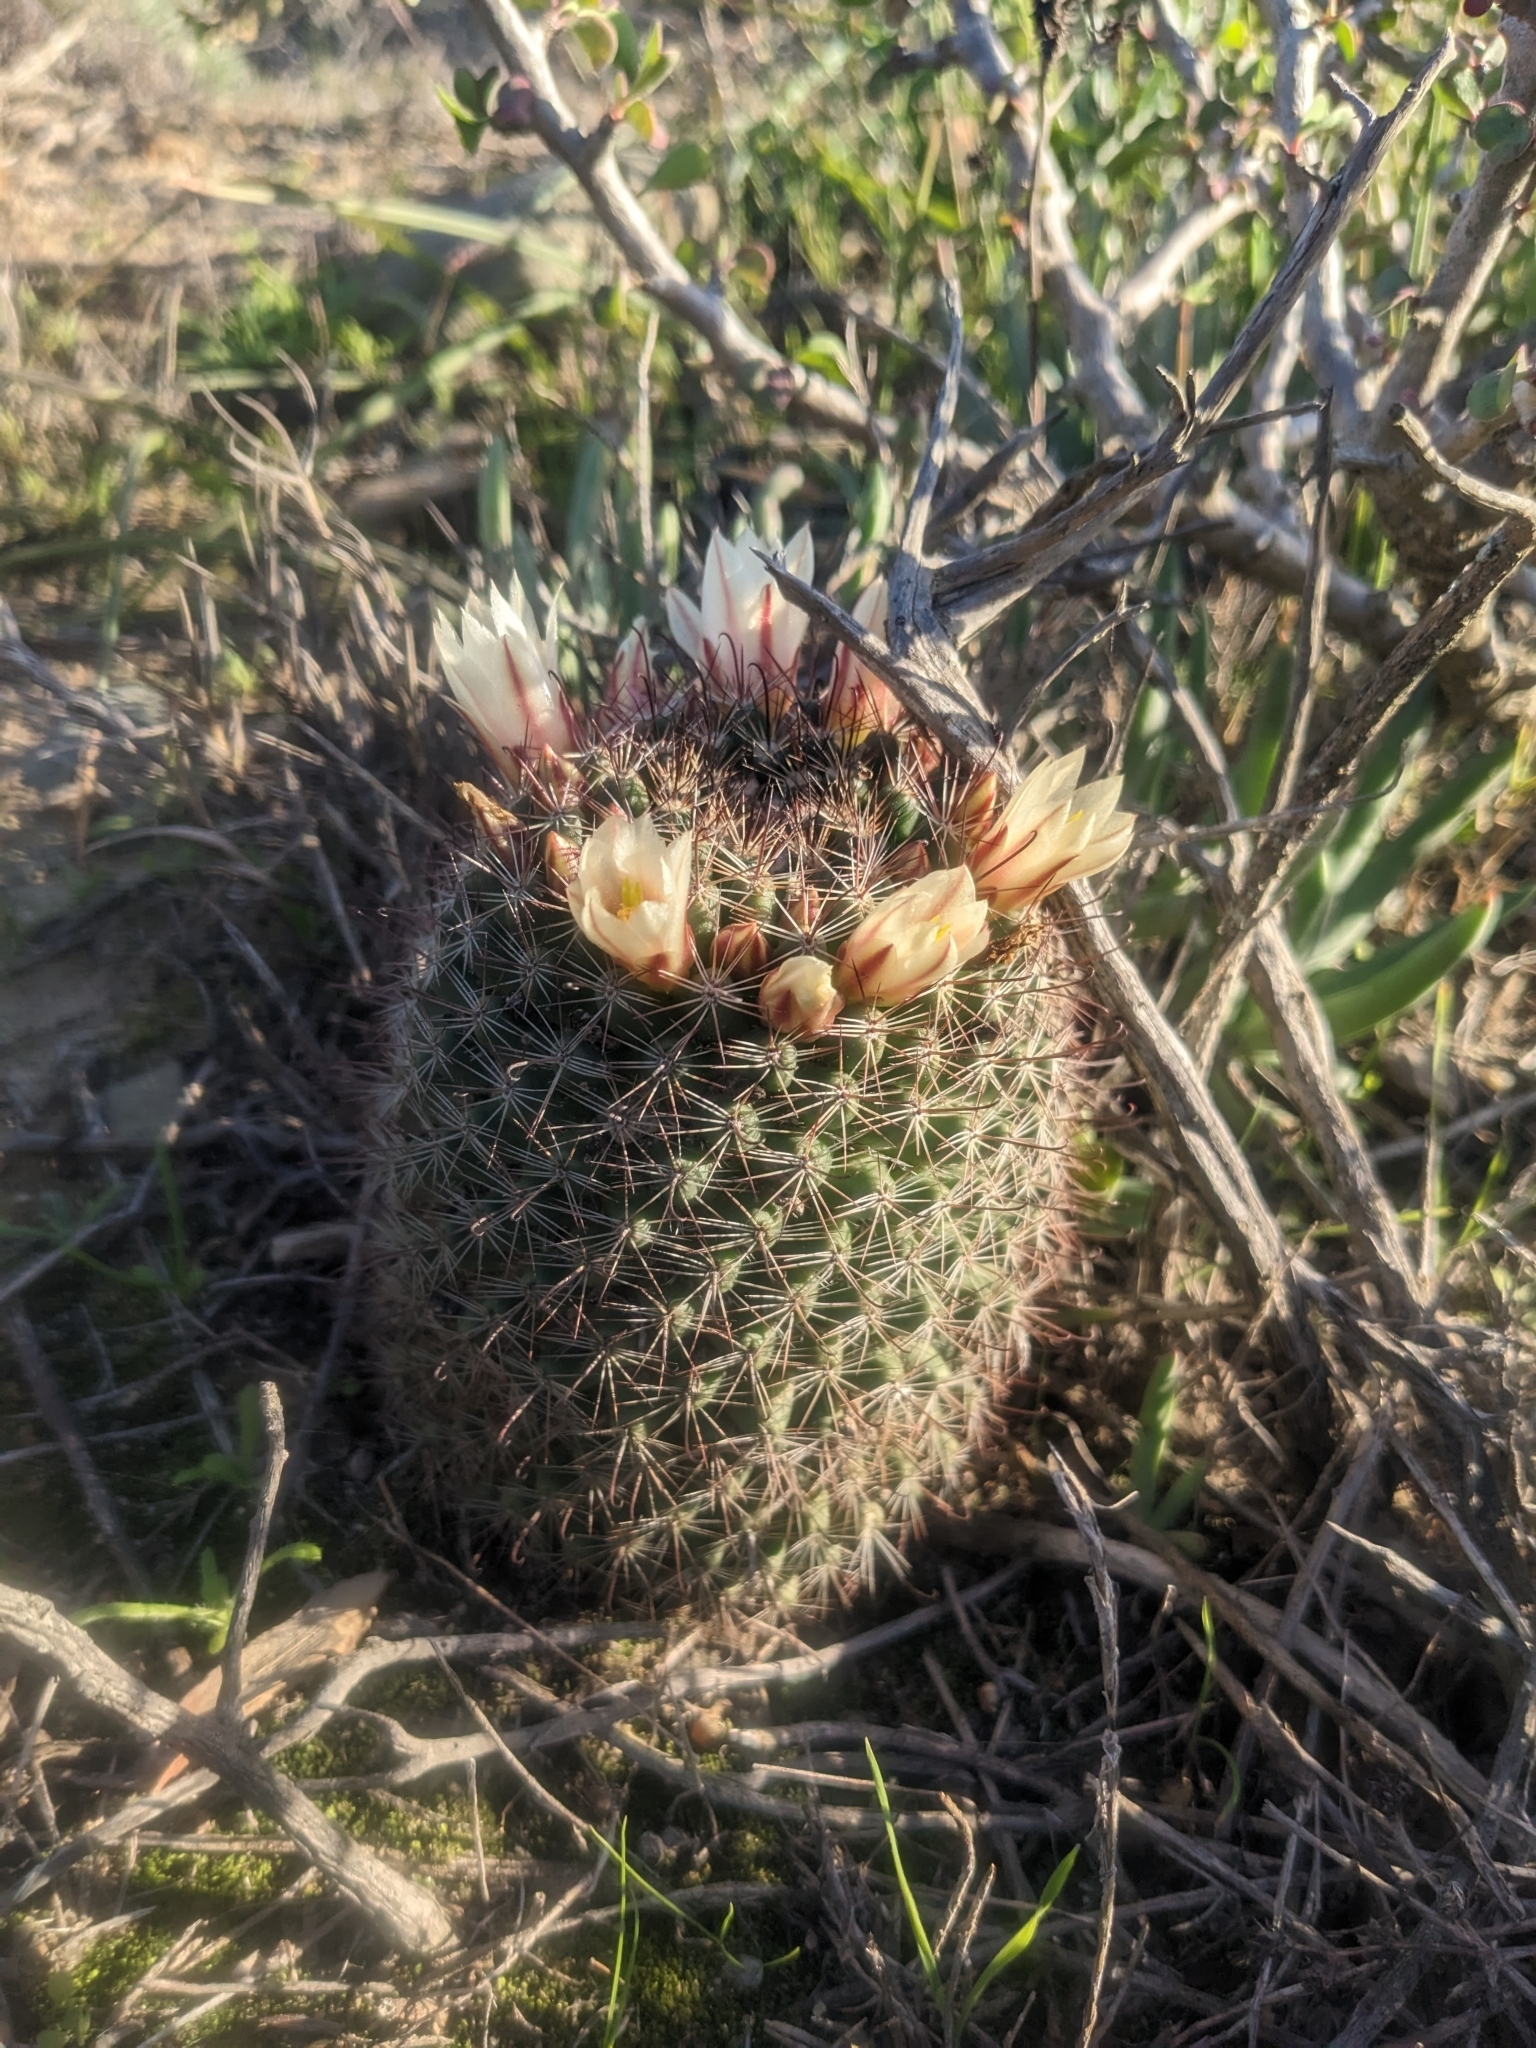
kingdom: Plantae
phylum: Tracheophyta
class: Magnoliopsida
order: Caryophyllales
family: Cactaceae
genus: Cochemiea
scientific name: Cochemiea dioica
